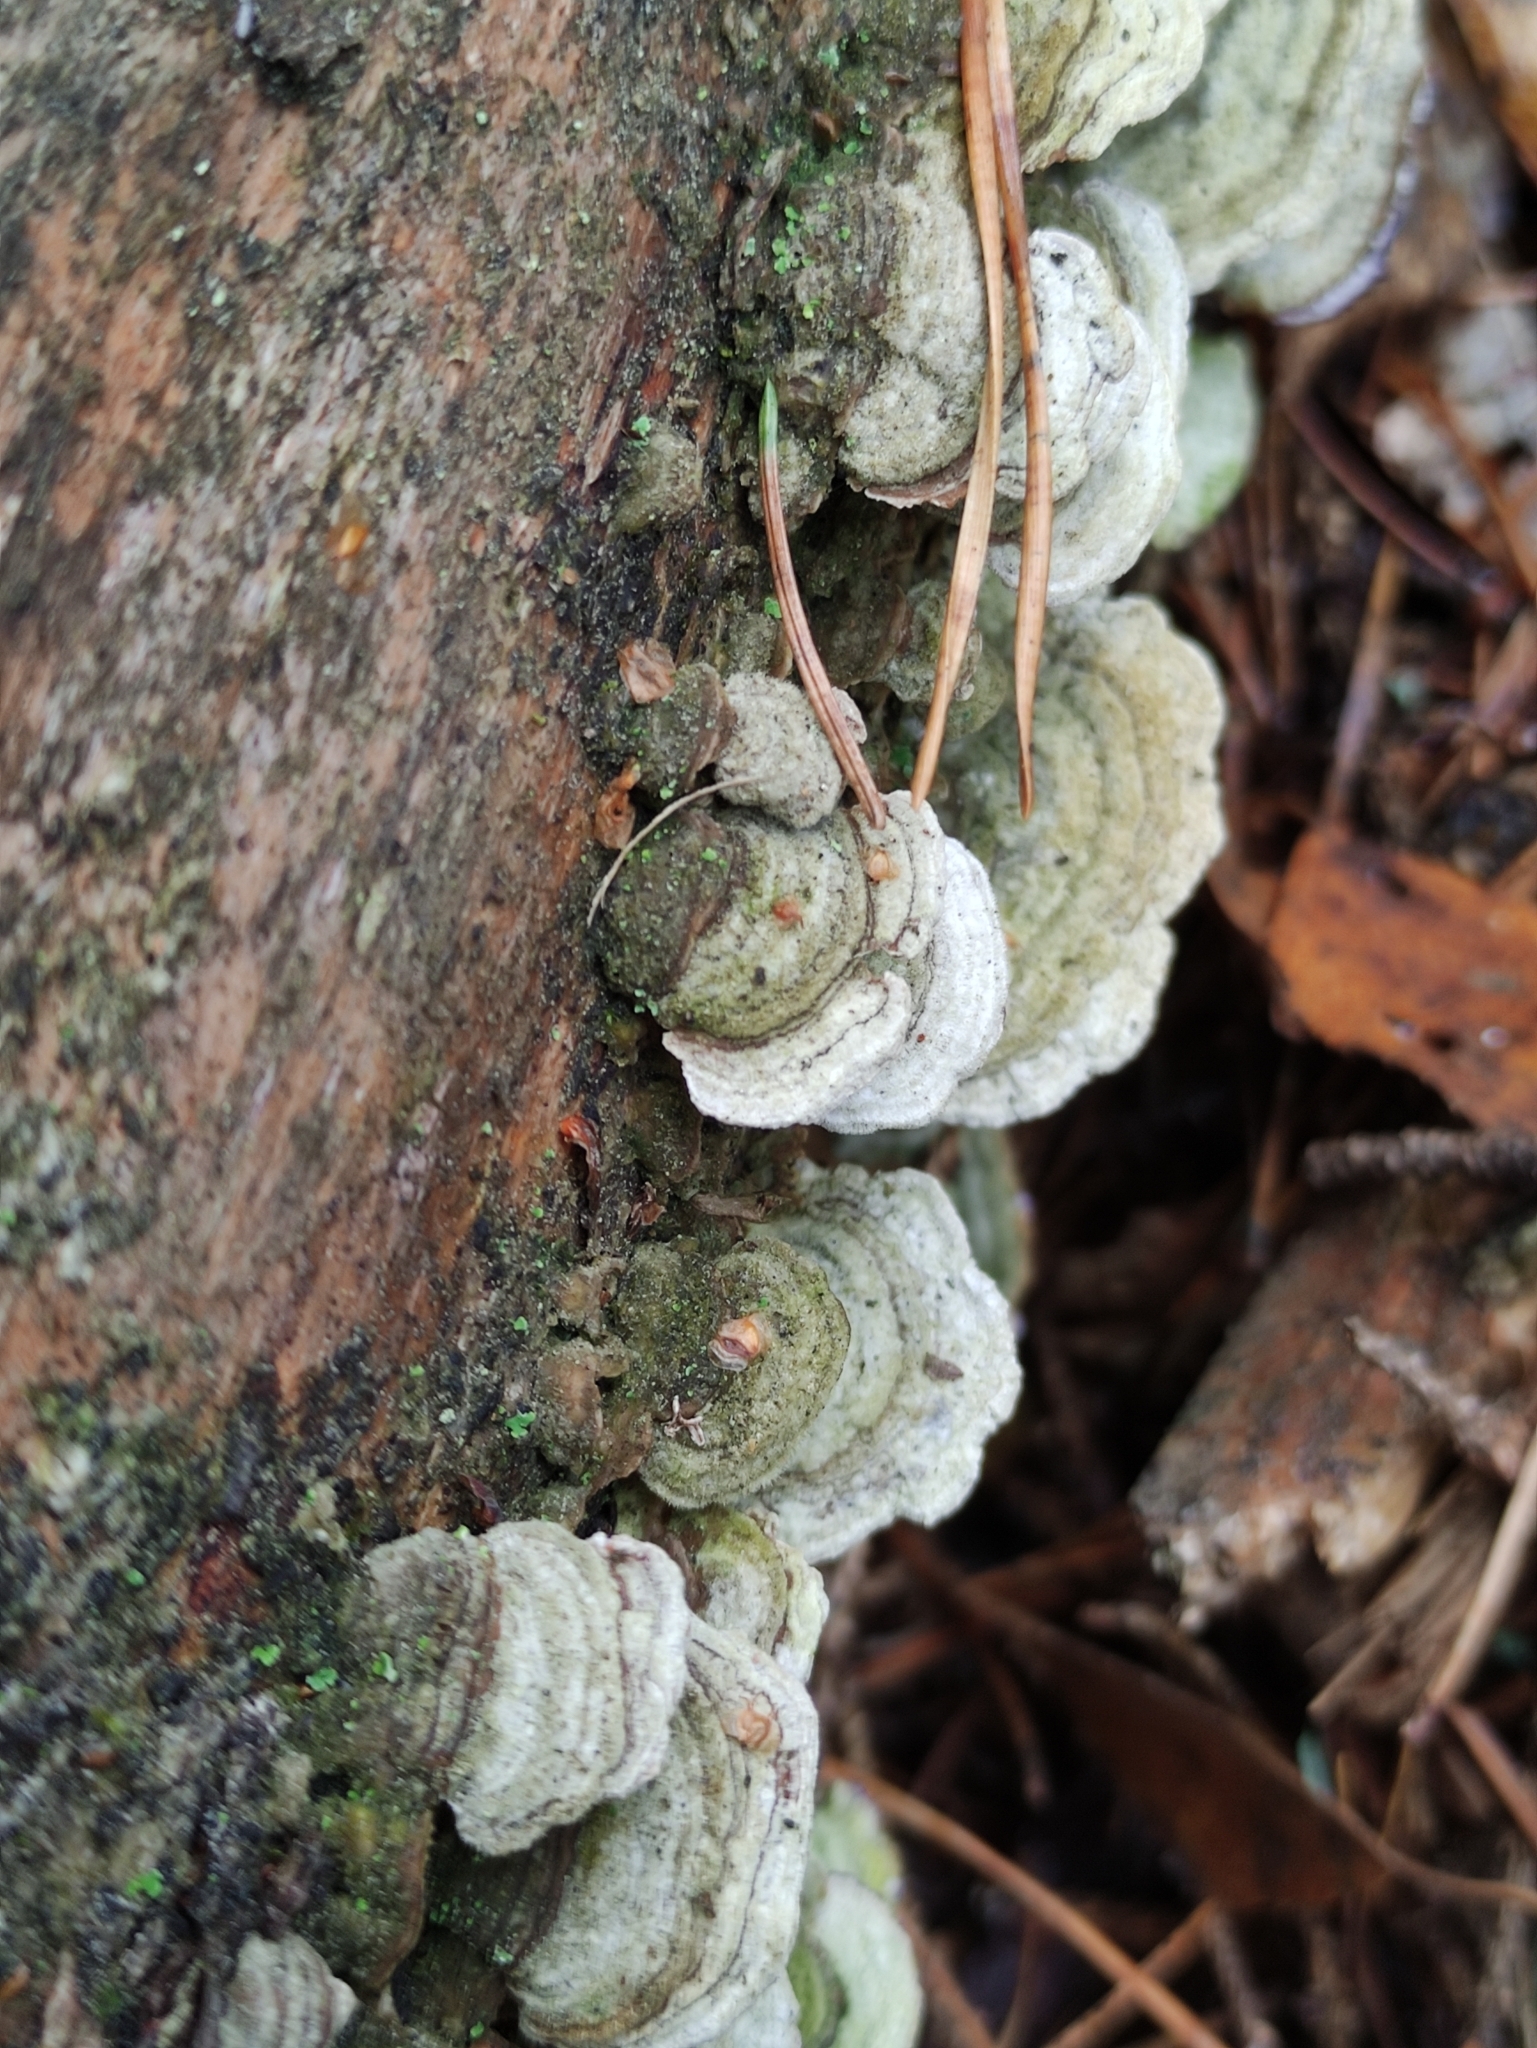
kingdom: Fungi
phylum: Basidiomycota
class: Agaricomycetes
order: Hymenochaetales
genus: Trichaptum
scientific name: Trichaptum abietinum
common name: Purplepore bracket
